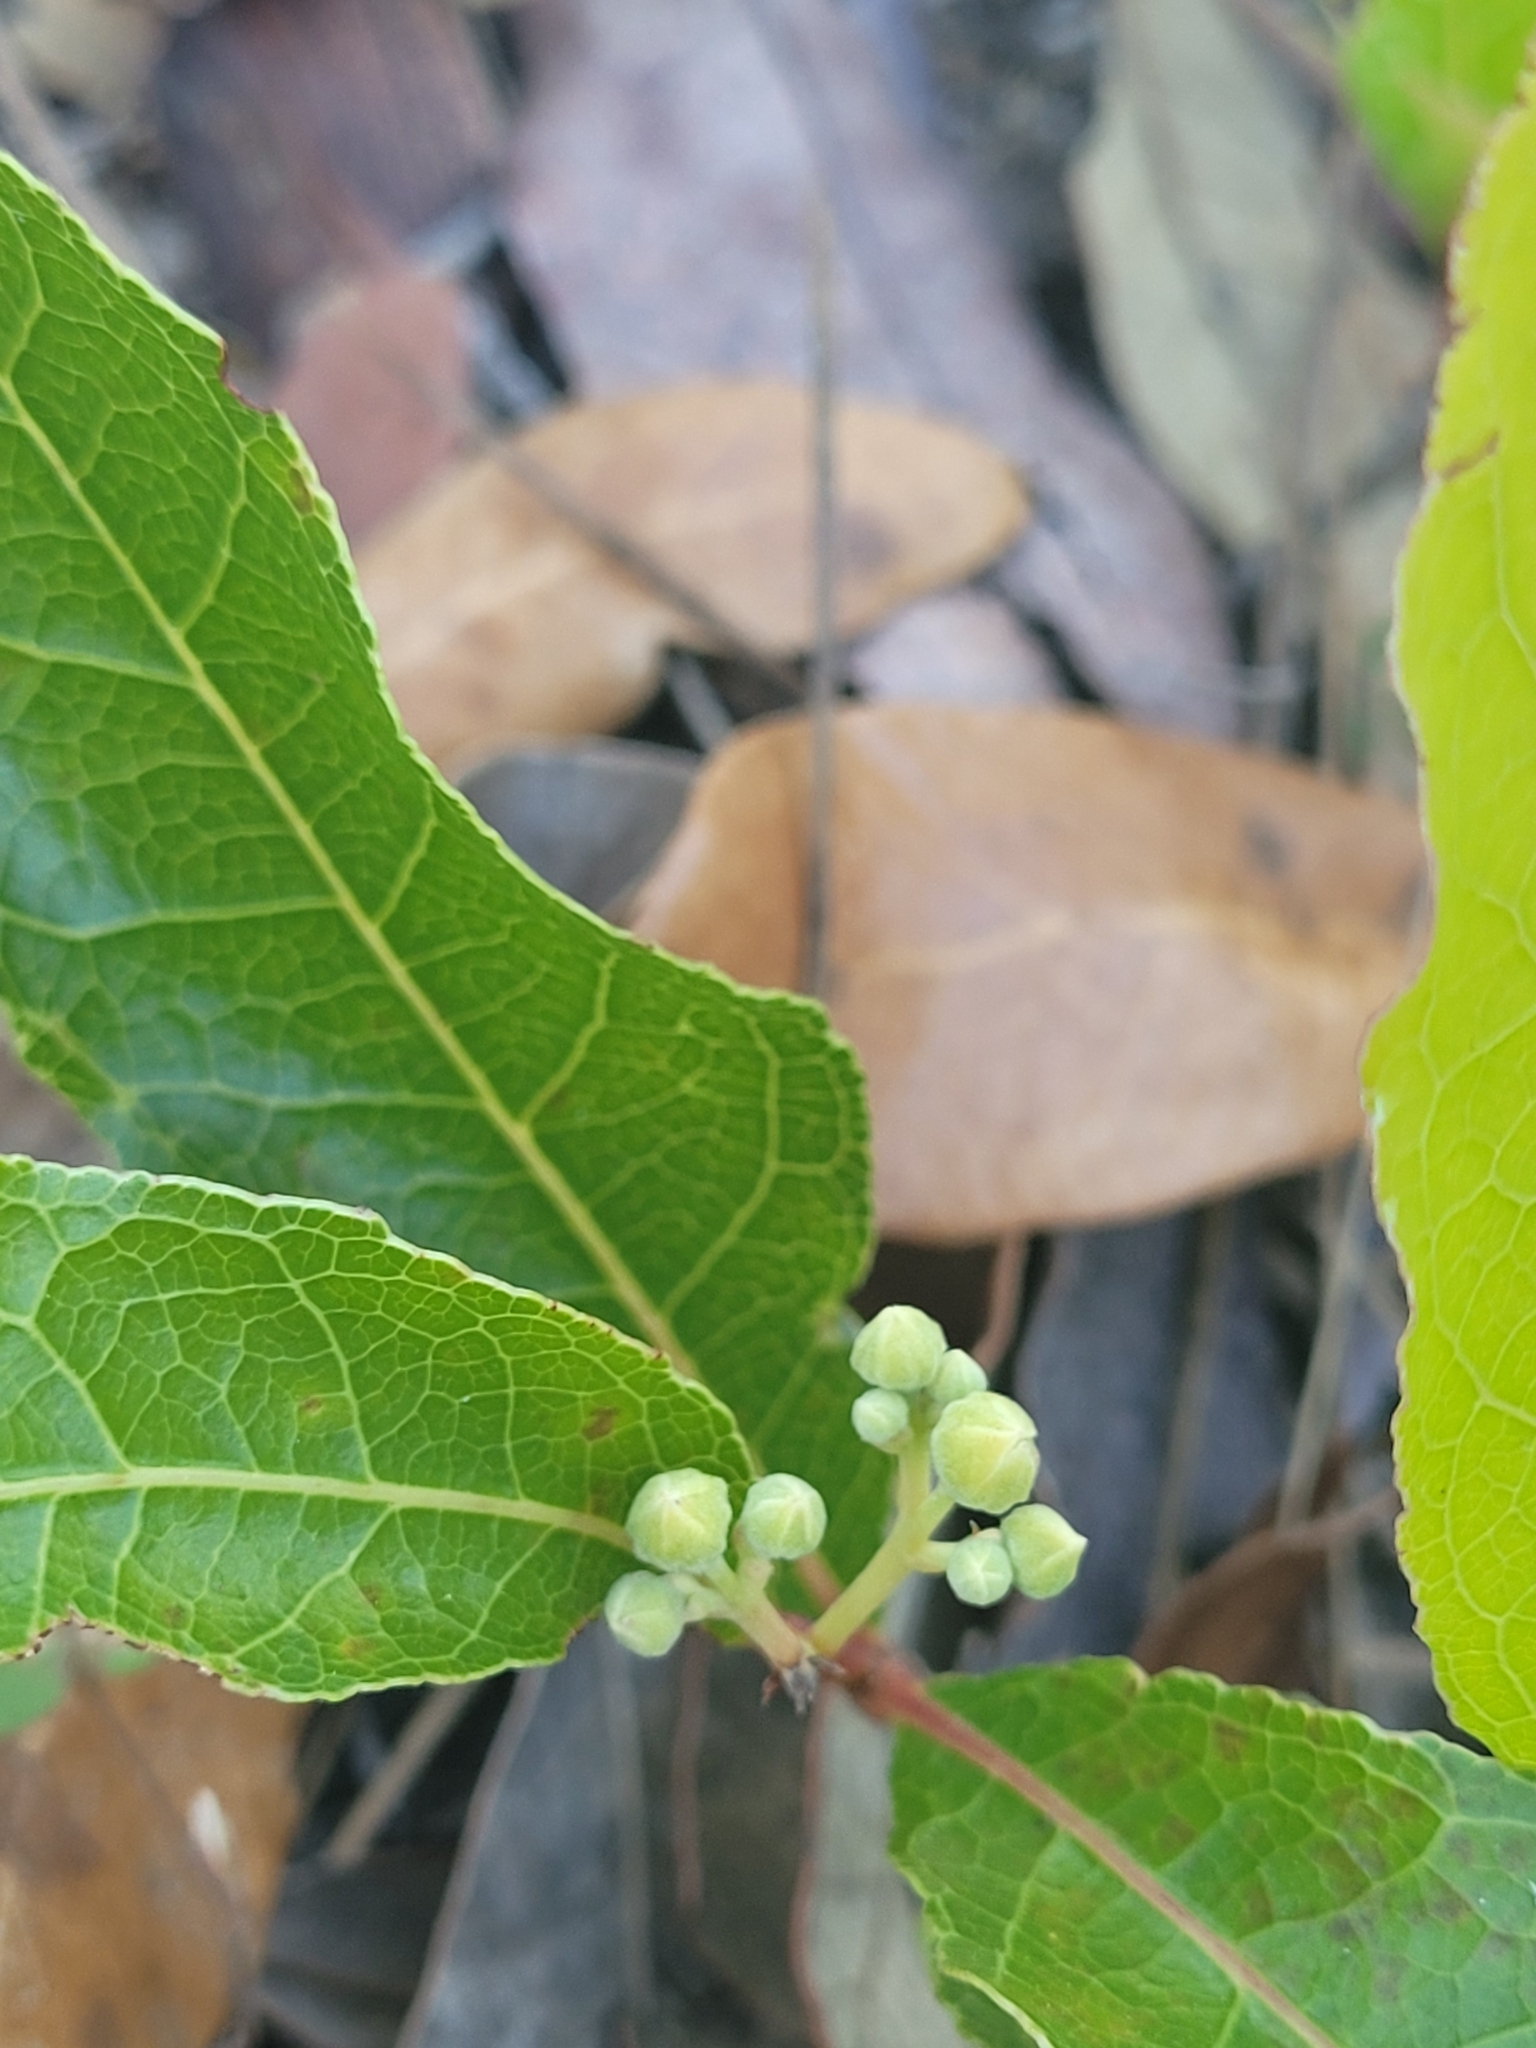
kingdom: Plantae
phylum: Tracheophyta
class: Magnoliopsida
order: Malpighiales
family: Chrysobalanaceae
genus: Geobalanus
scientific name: Geobalanus oblongifolius
